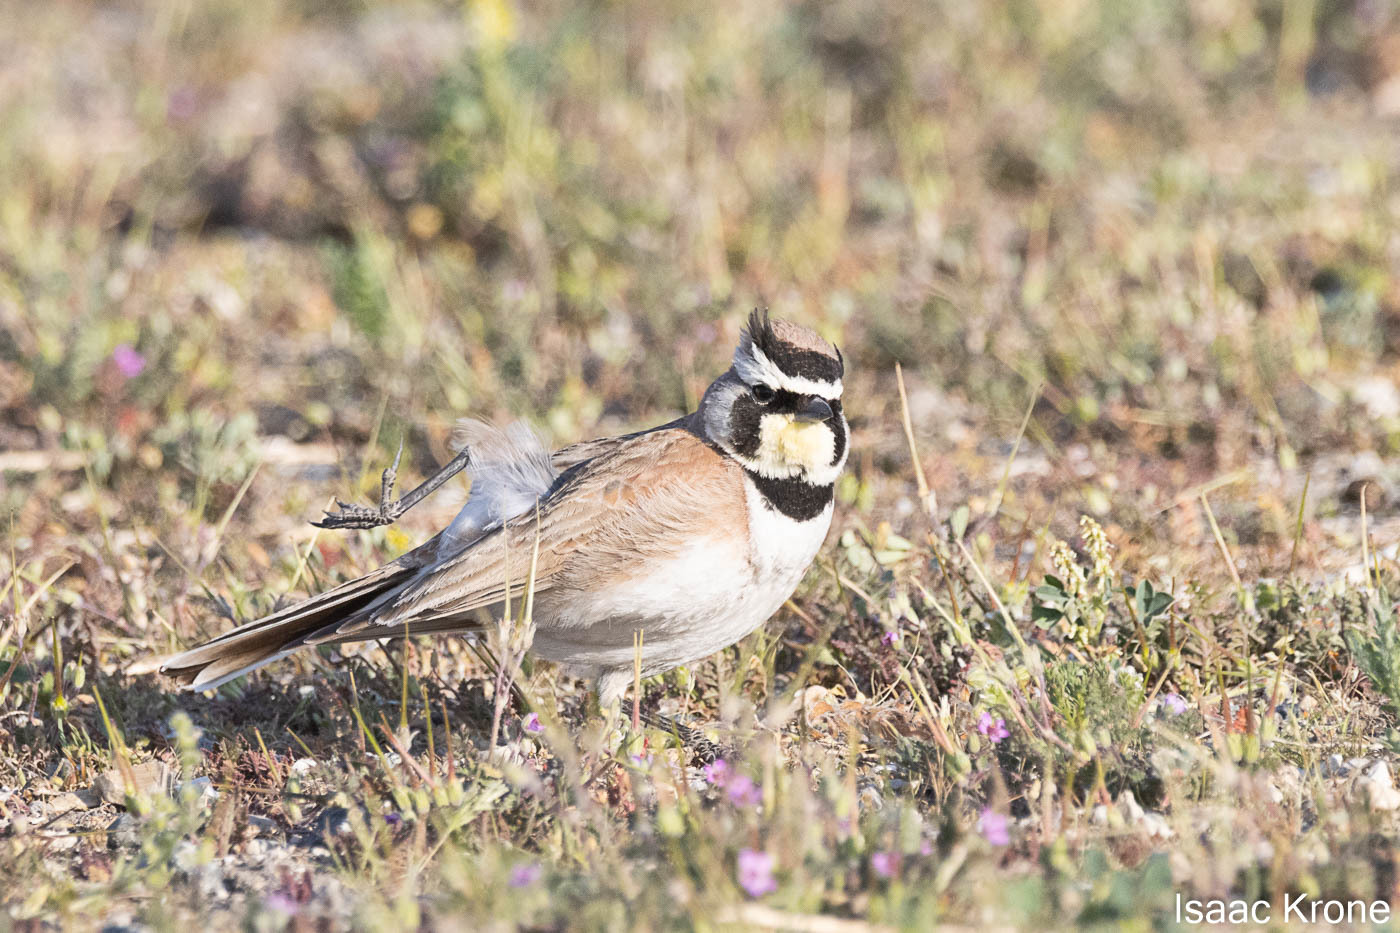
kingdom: Animalia
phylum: Chordata
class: Aves
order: Passeriformes
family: Alaudidae
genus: Eremophila
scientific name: Eremophila alpestris
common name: Horned lark
